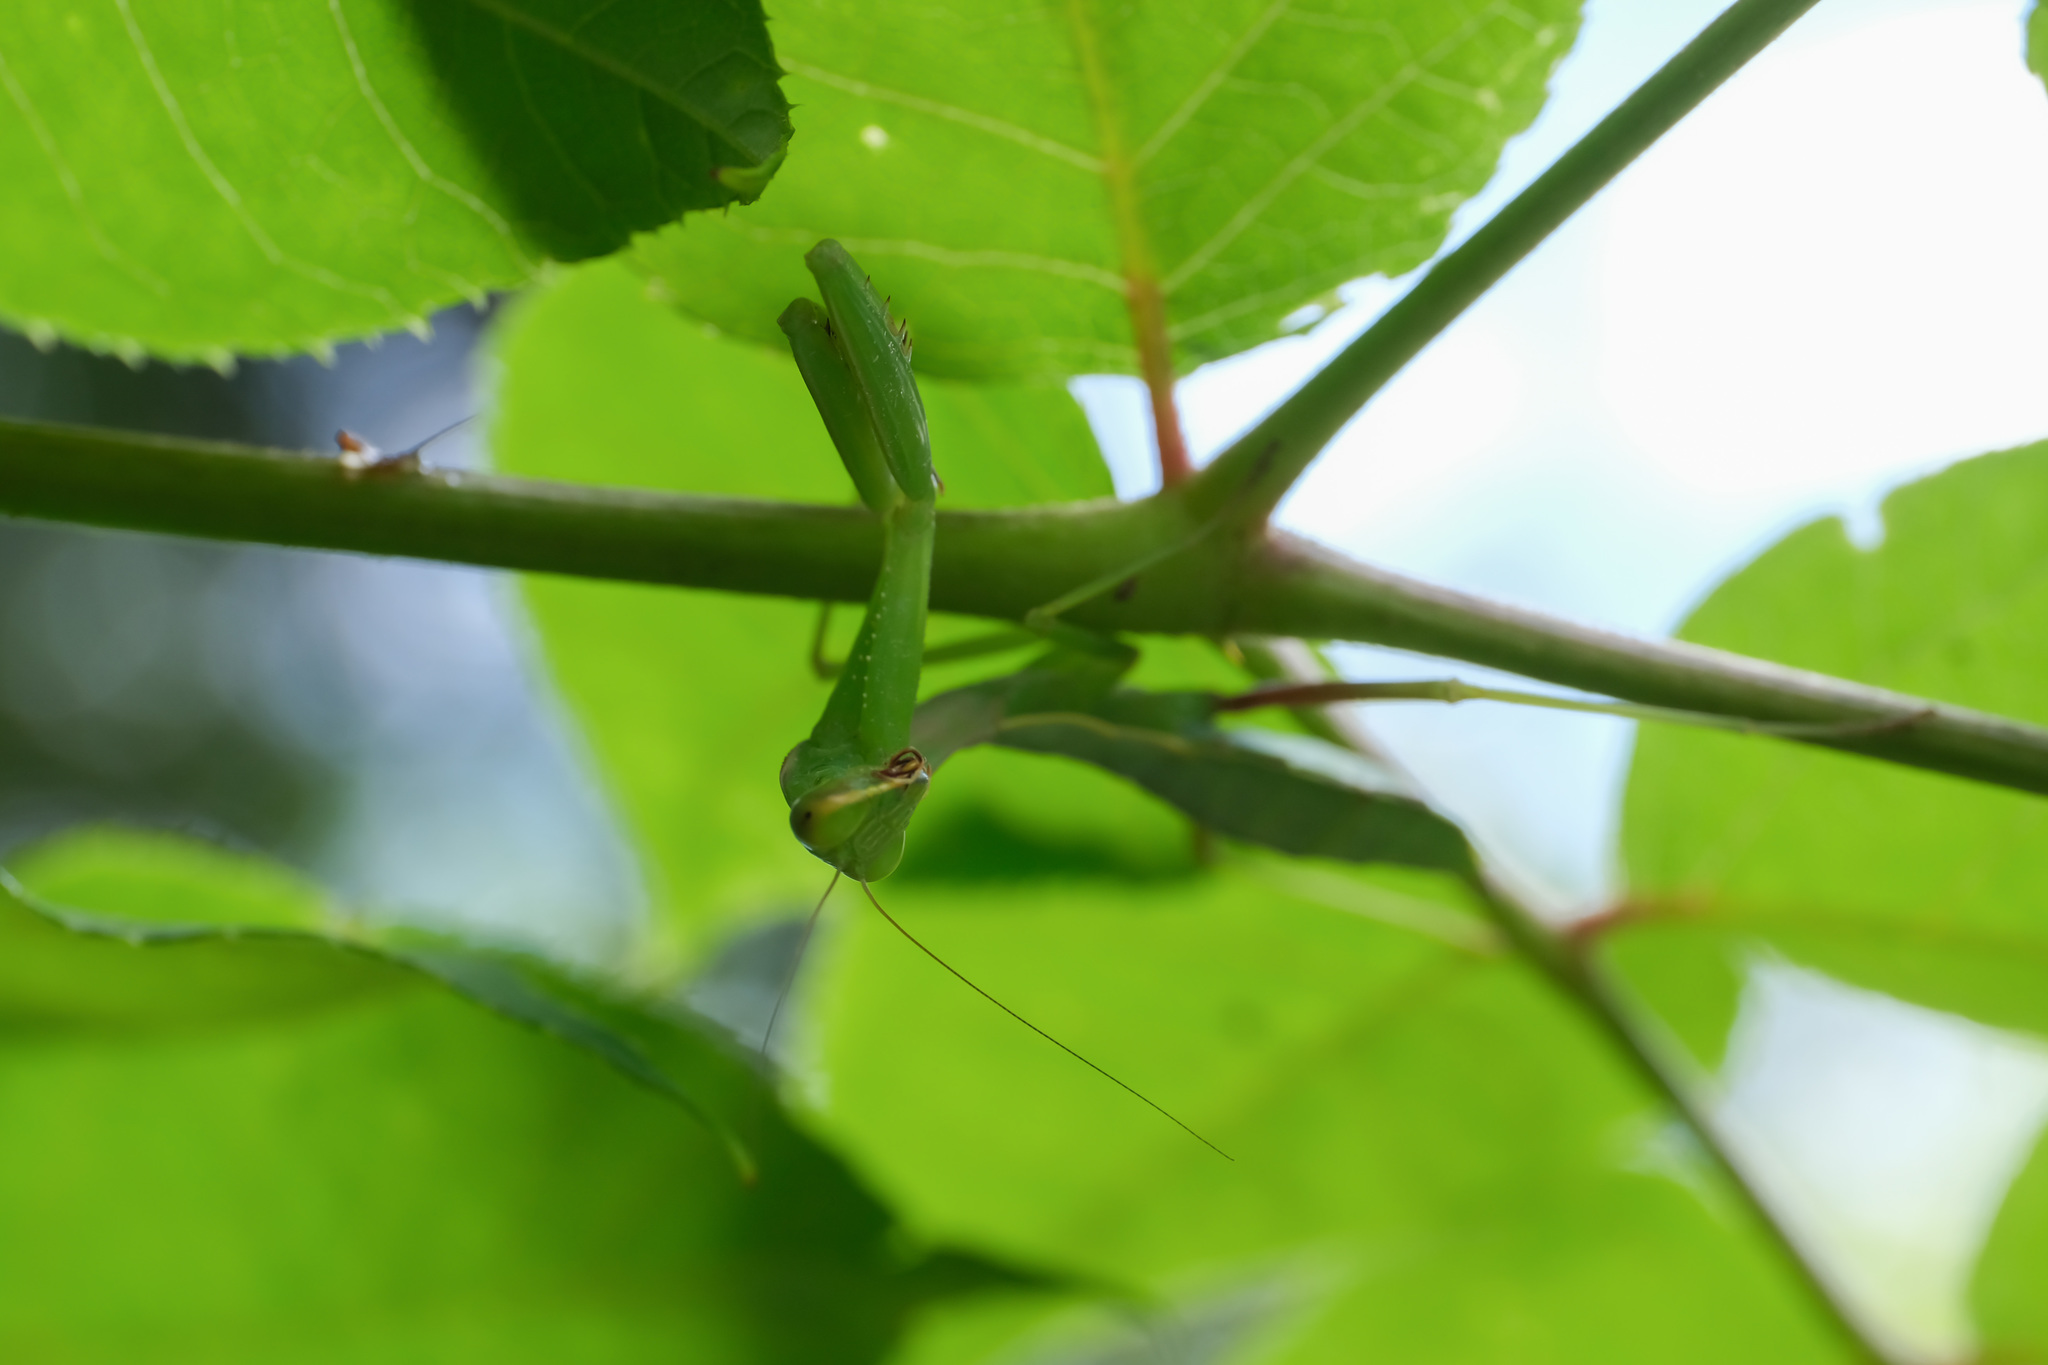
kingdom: Animalia
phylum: Arthropoda
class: Insecta
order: Mantodea
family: Mantidae
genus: Hierodula
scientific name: Hierodula chinensis
